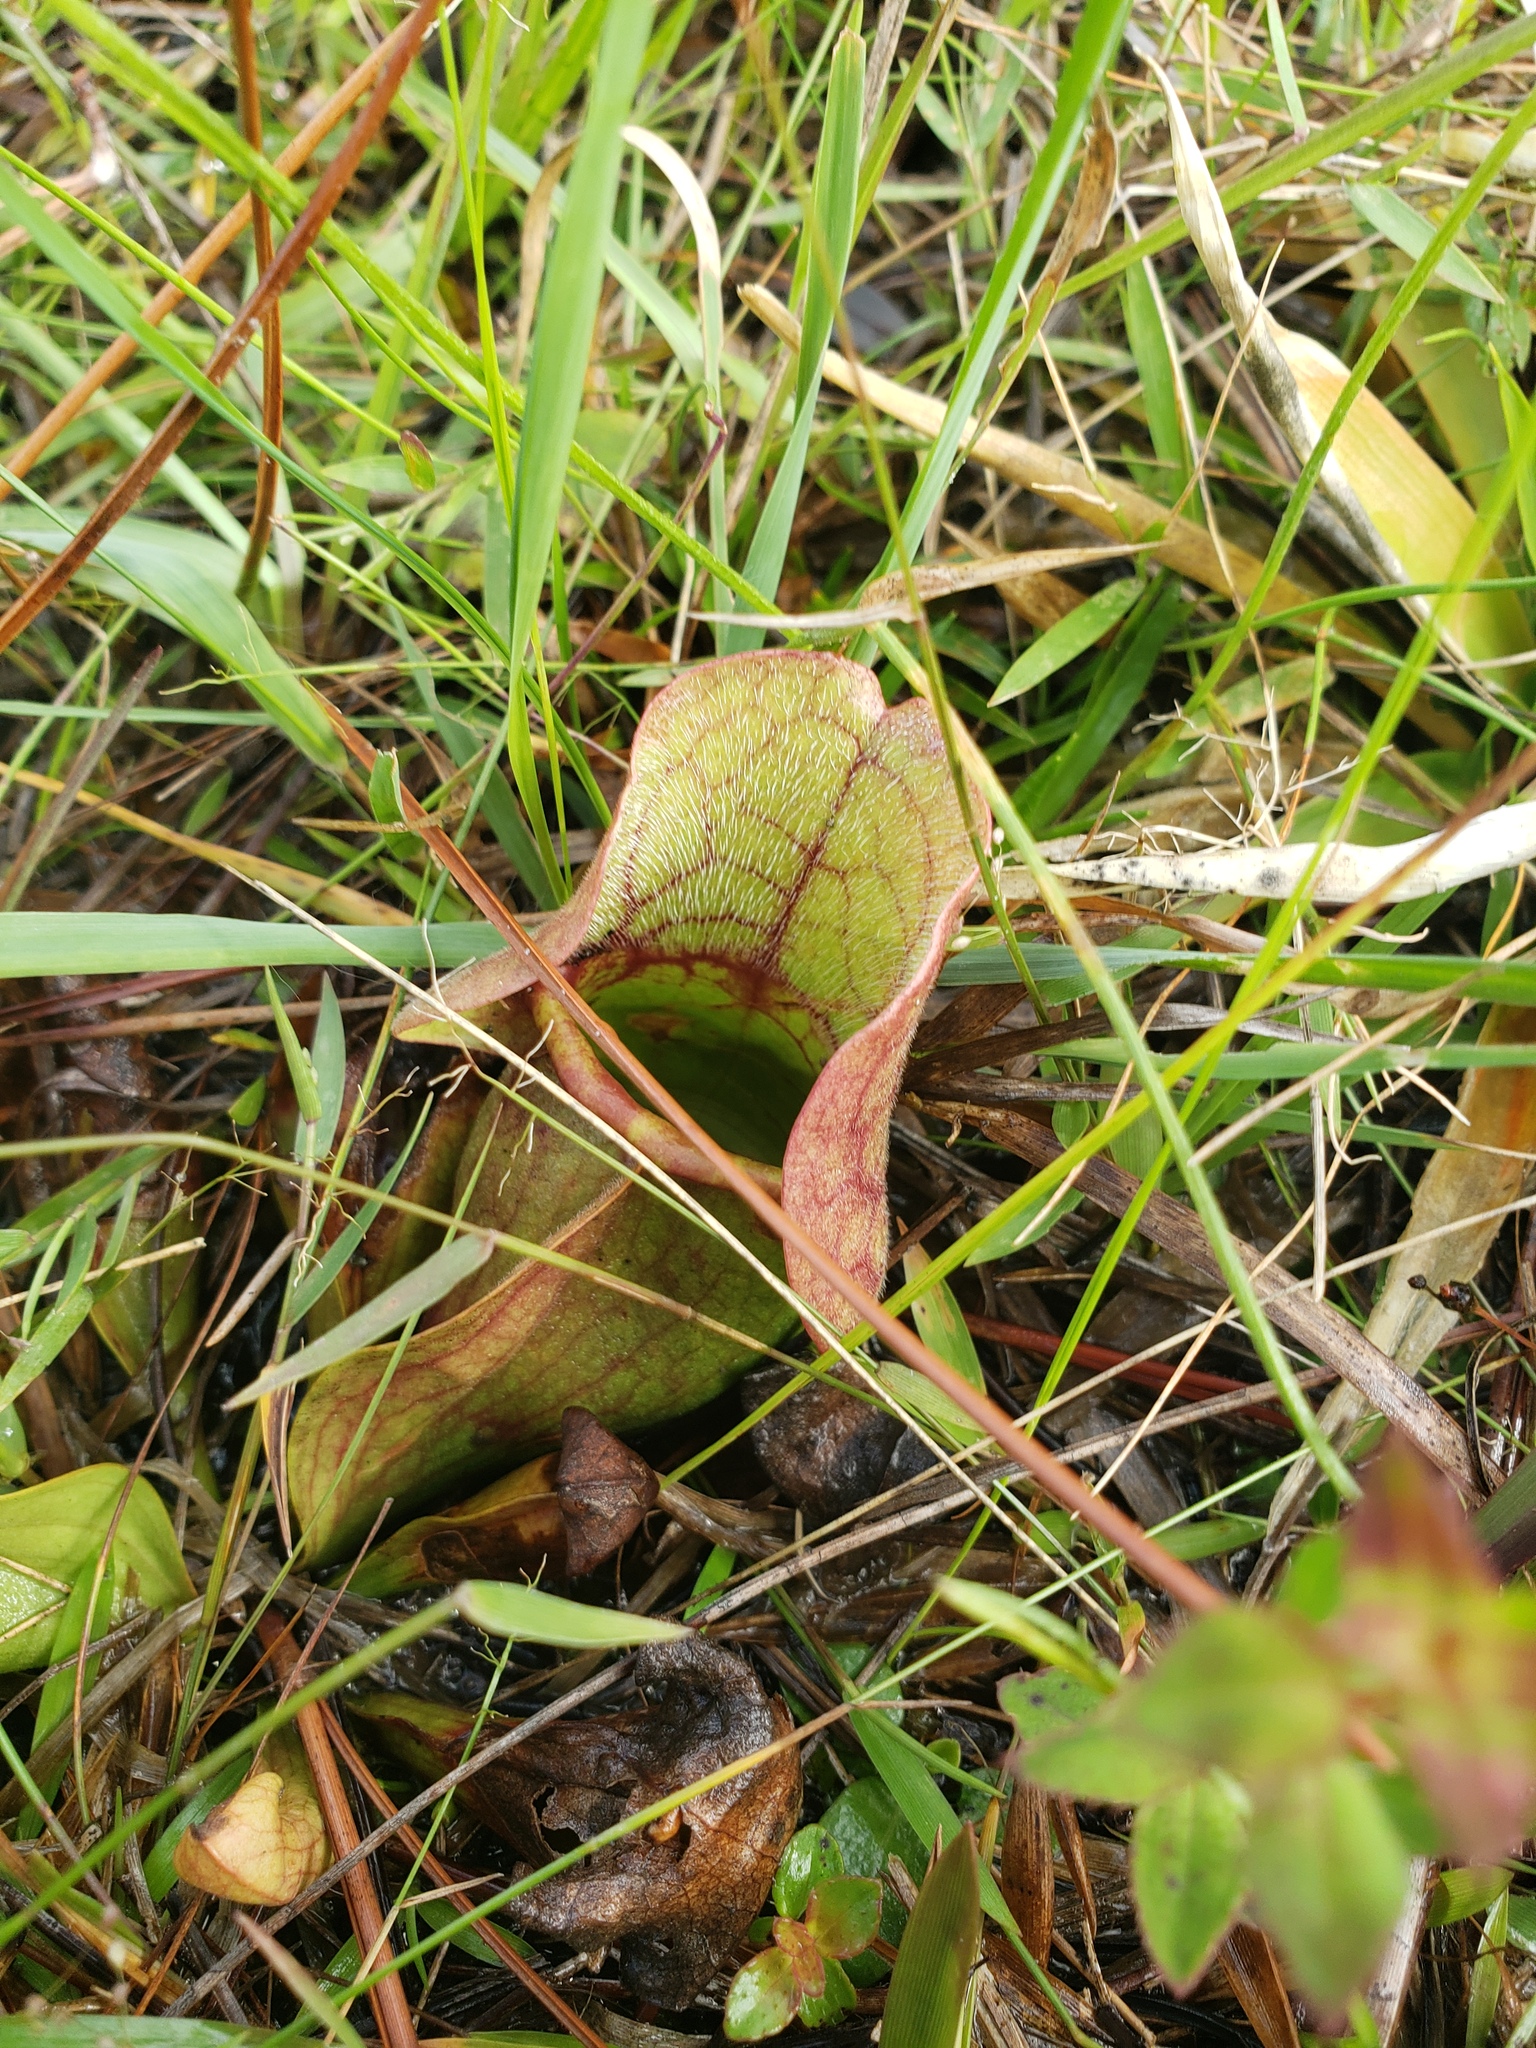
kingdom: Plantae
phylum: Tracheophyta
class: Magnoliopsida
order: Ericales
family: Sarraceniaceae
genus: Sarracenia
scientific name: Sarracenia rosea
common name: Pink pitcherplant
